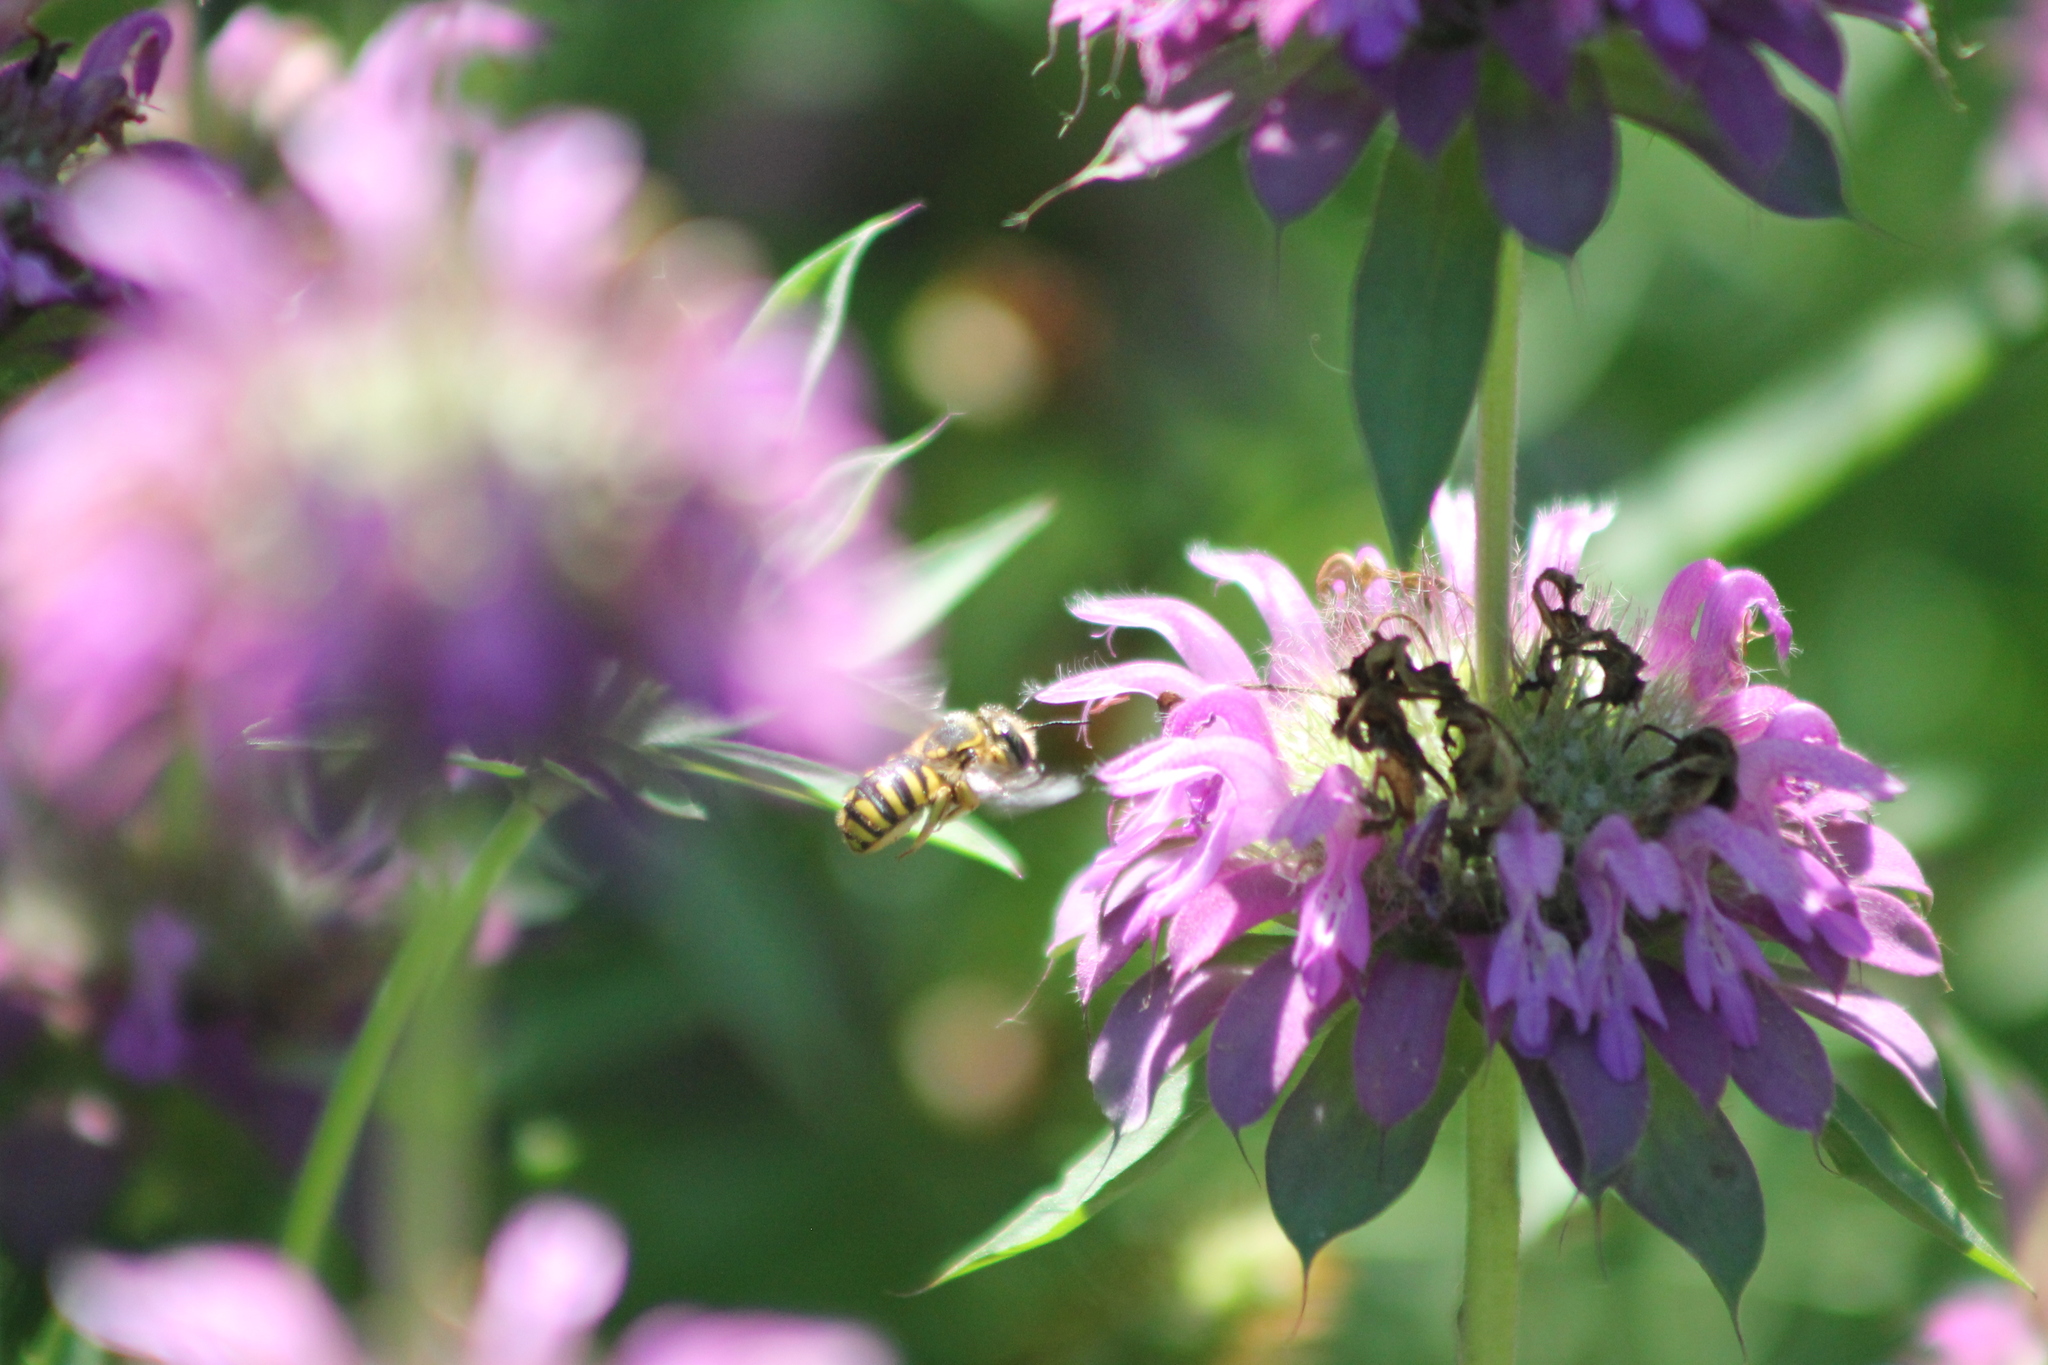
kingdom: Animalia
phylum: Arthropoda
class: Insecta
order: Hymenoptera
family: Megachilidae
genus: Anthidium
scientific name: Anthidium manicatum
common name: Wool carder bee
